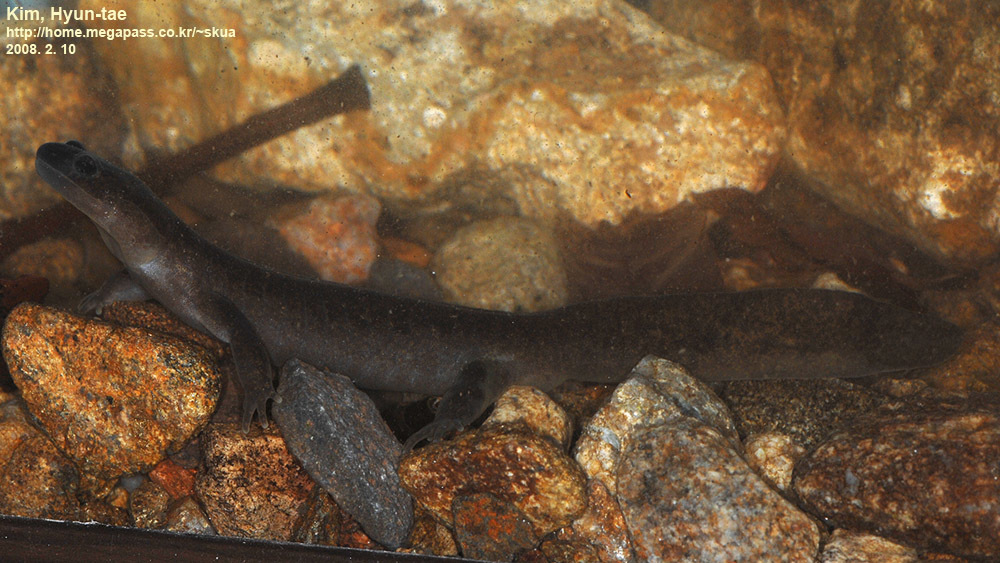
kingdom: Animalia
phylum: Chordata
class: Amphibia
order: Caudata
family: Hynobiidae
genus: Hynobius
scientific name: Hynobius leechii
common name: Gensan salamander
